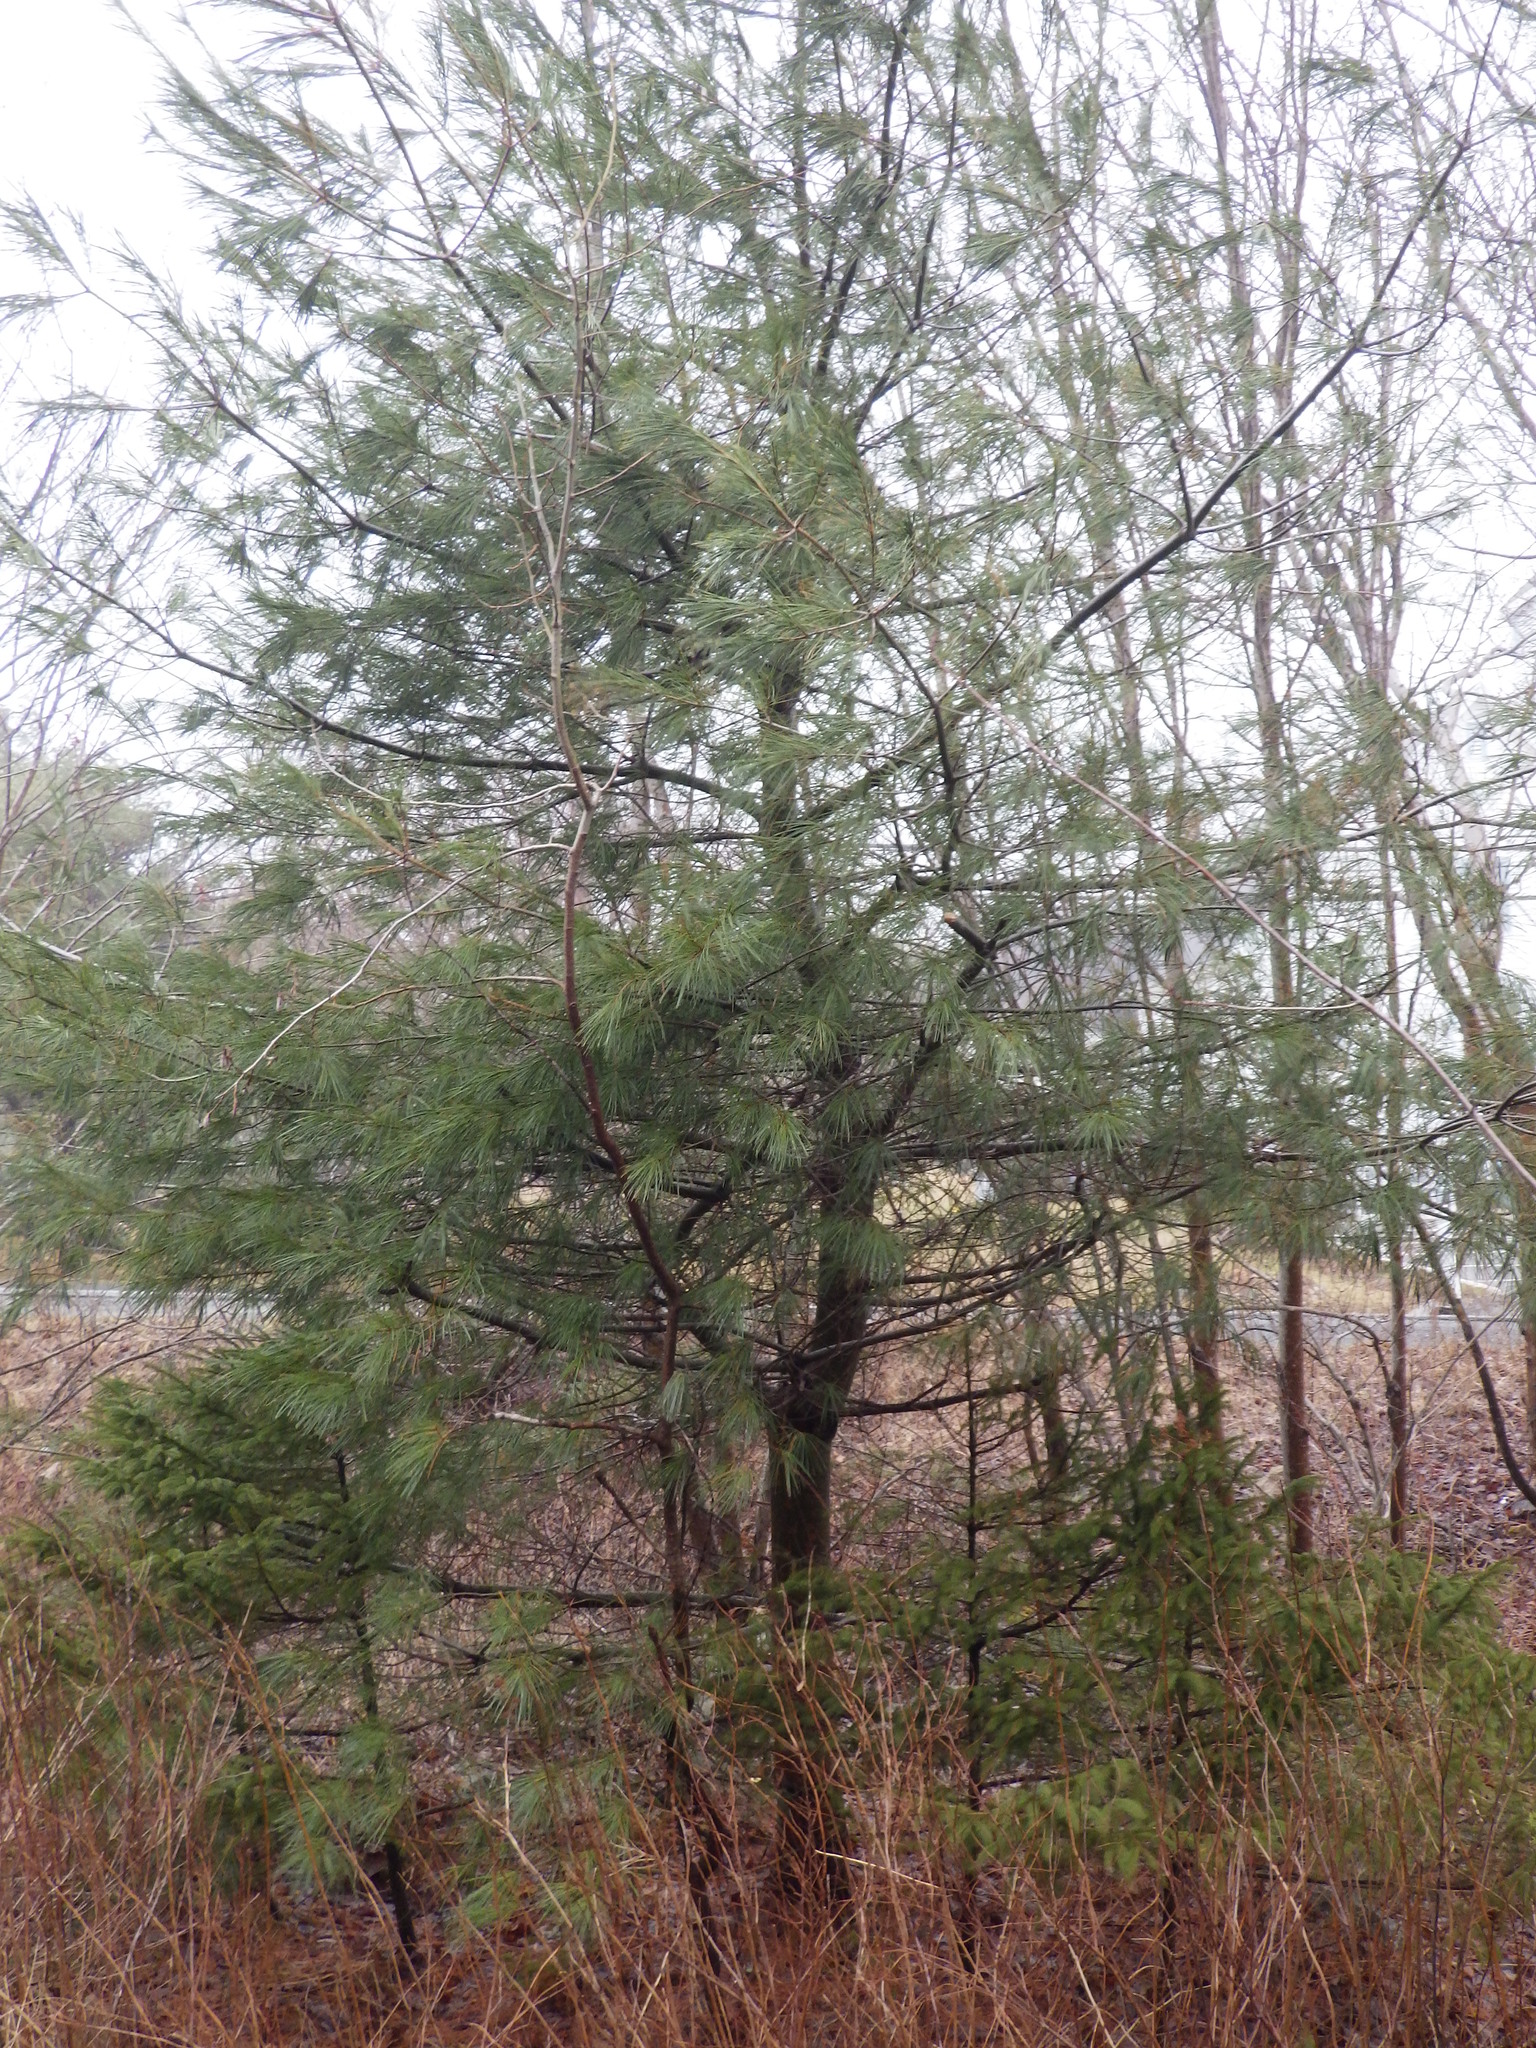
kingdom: Plantae
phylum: Tracheophyta
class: Pinopsida
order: Pinales
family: Pinaceae
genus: Pinus
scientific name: Pinus strobus
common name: Weymouth pine
